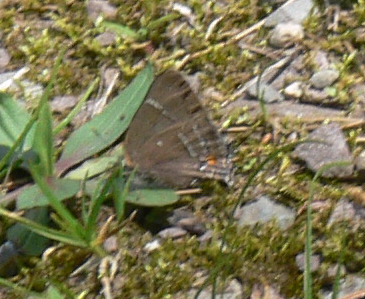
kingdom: Animalia
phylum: Arthropoda
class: Insecta
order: Lepidoptera
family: Lycaenidae
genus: Parrhasius
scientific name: Parrhasius m-album
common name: White m hairstreak
